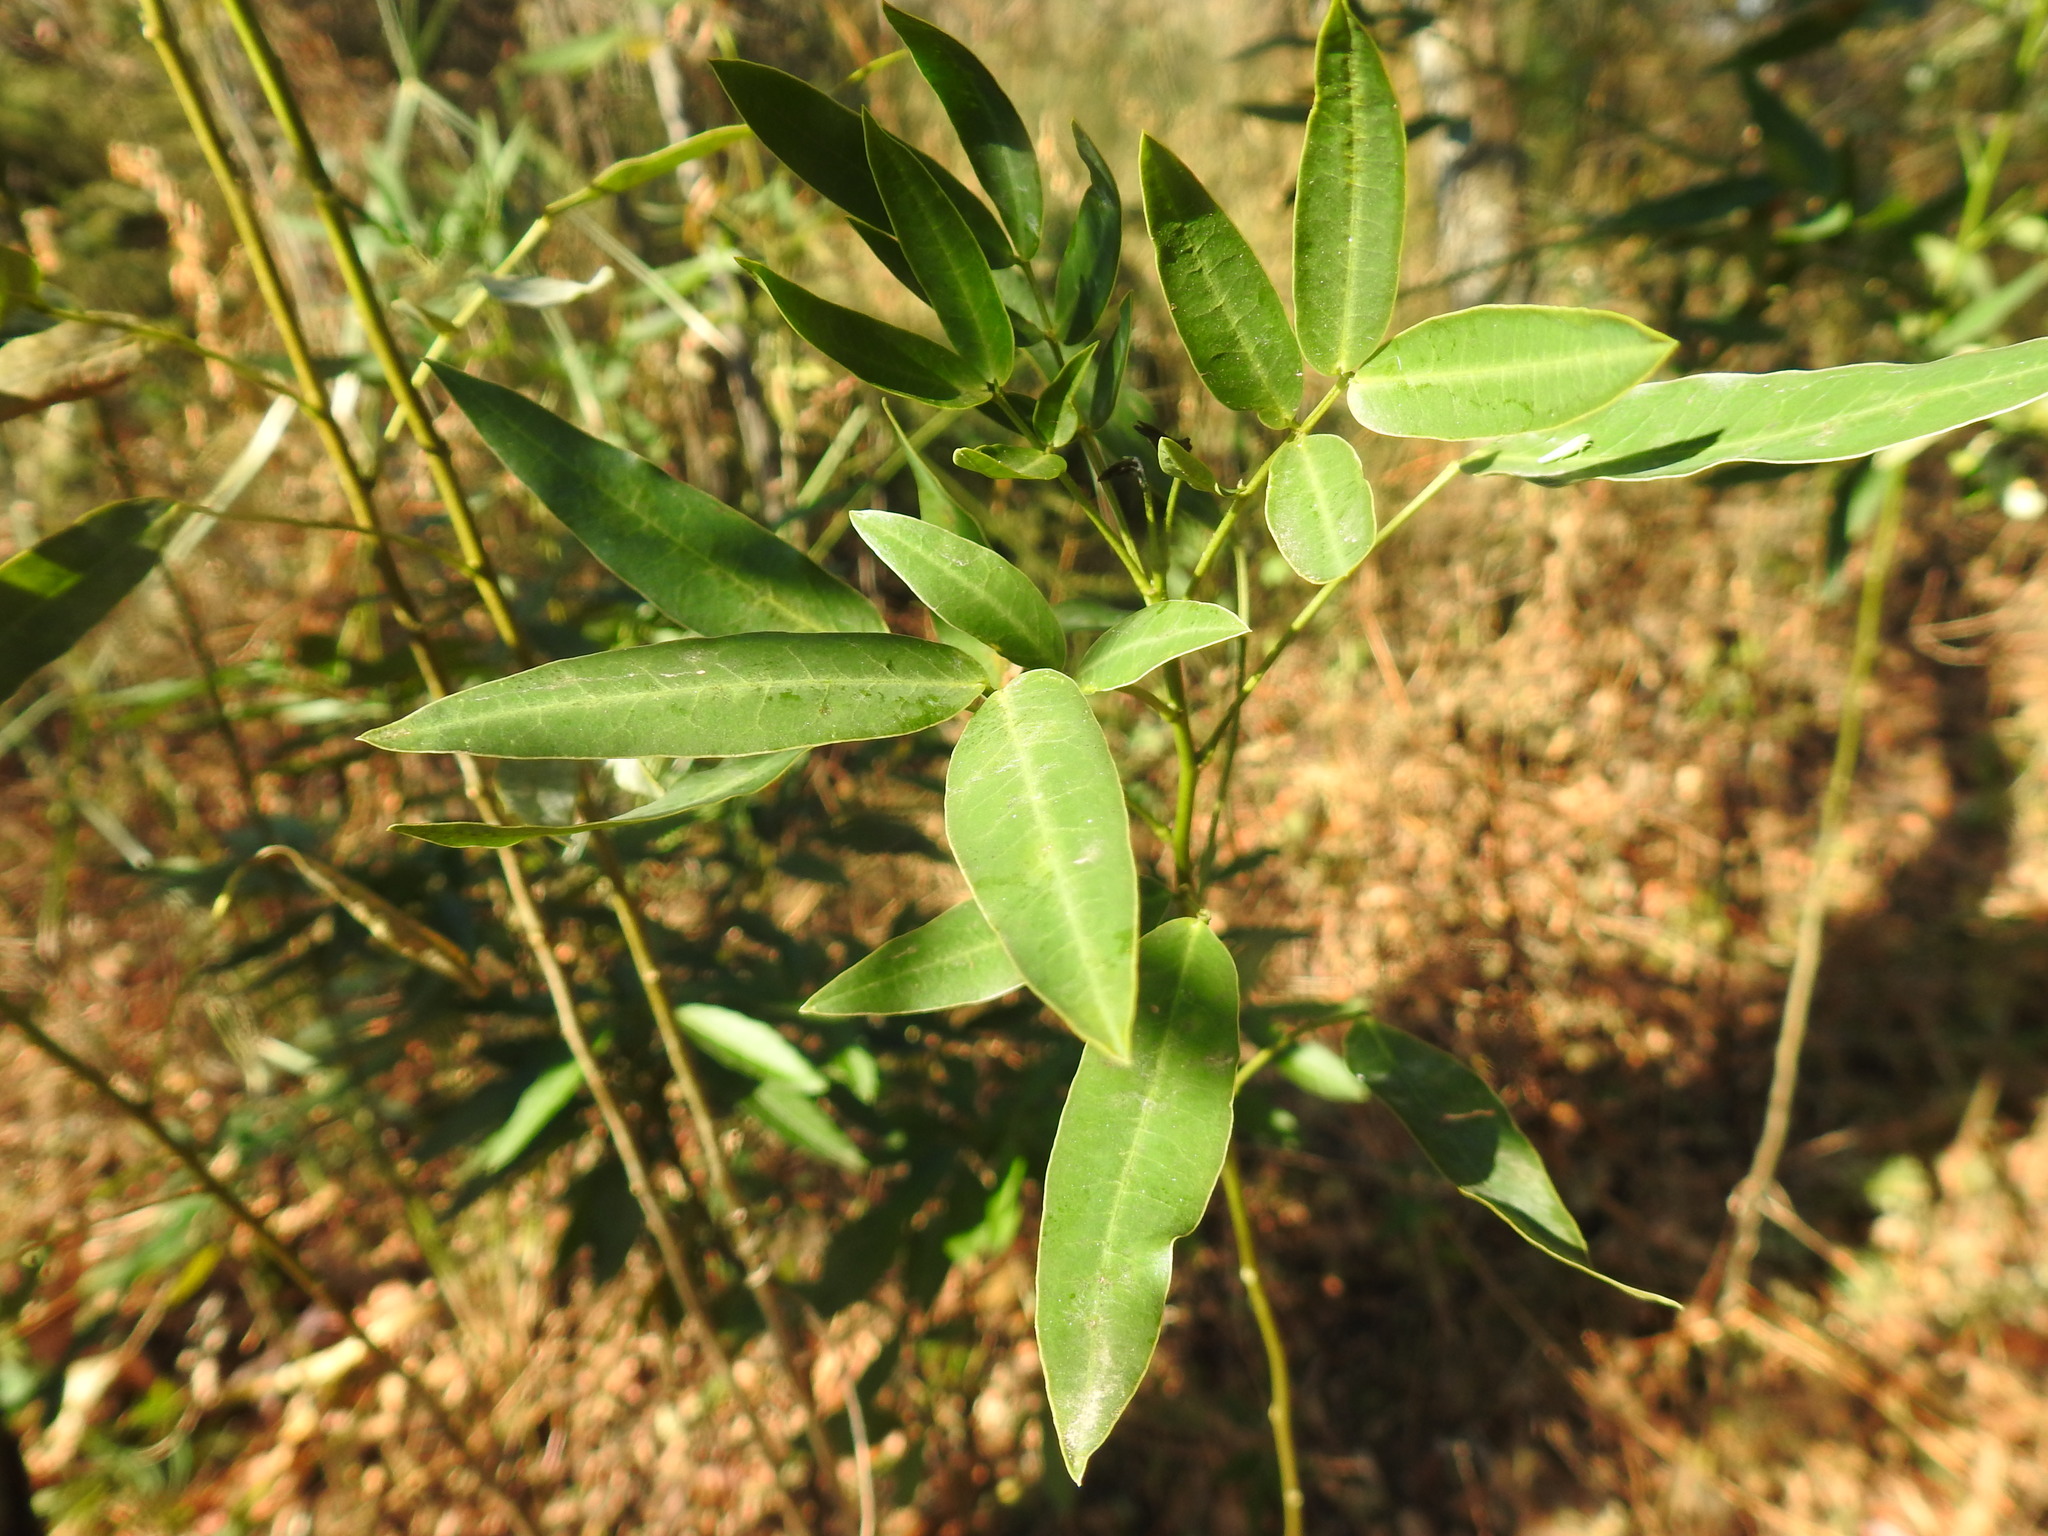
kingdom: Plantae
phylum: Tracheophyta
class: Magnoliopsida
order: Fabales
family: Fabaceae
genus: Senna
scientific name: Senna corymbosa
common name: Argentine senna
